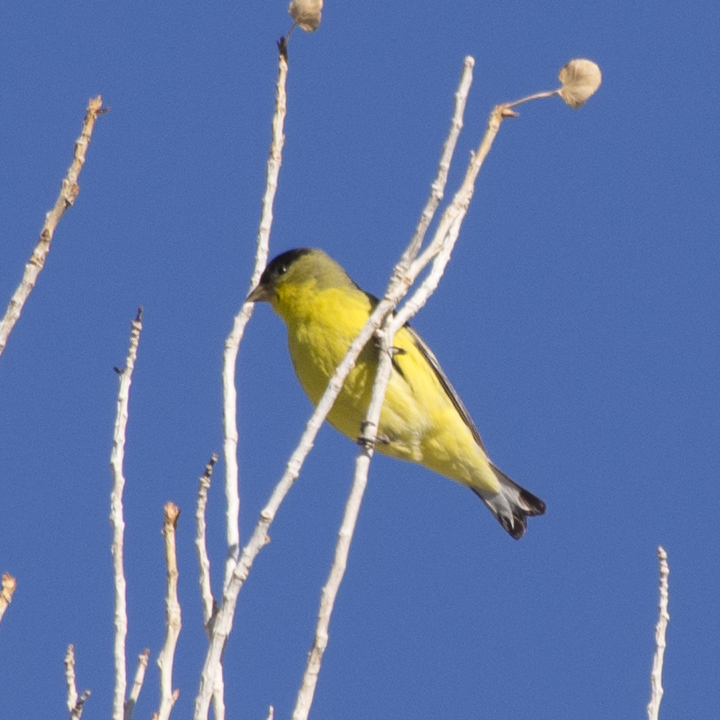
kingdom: Animalia
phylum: Chordata
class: Aves
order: Passeriformes
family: Fringillidae
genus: Spinus
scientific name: Spinus psaltria
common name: Lesser goldfinch
